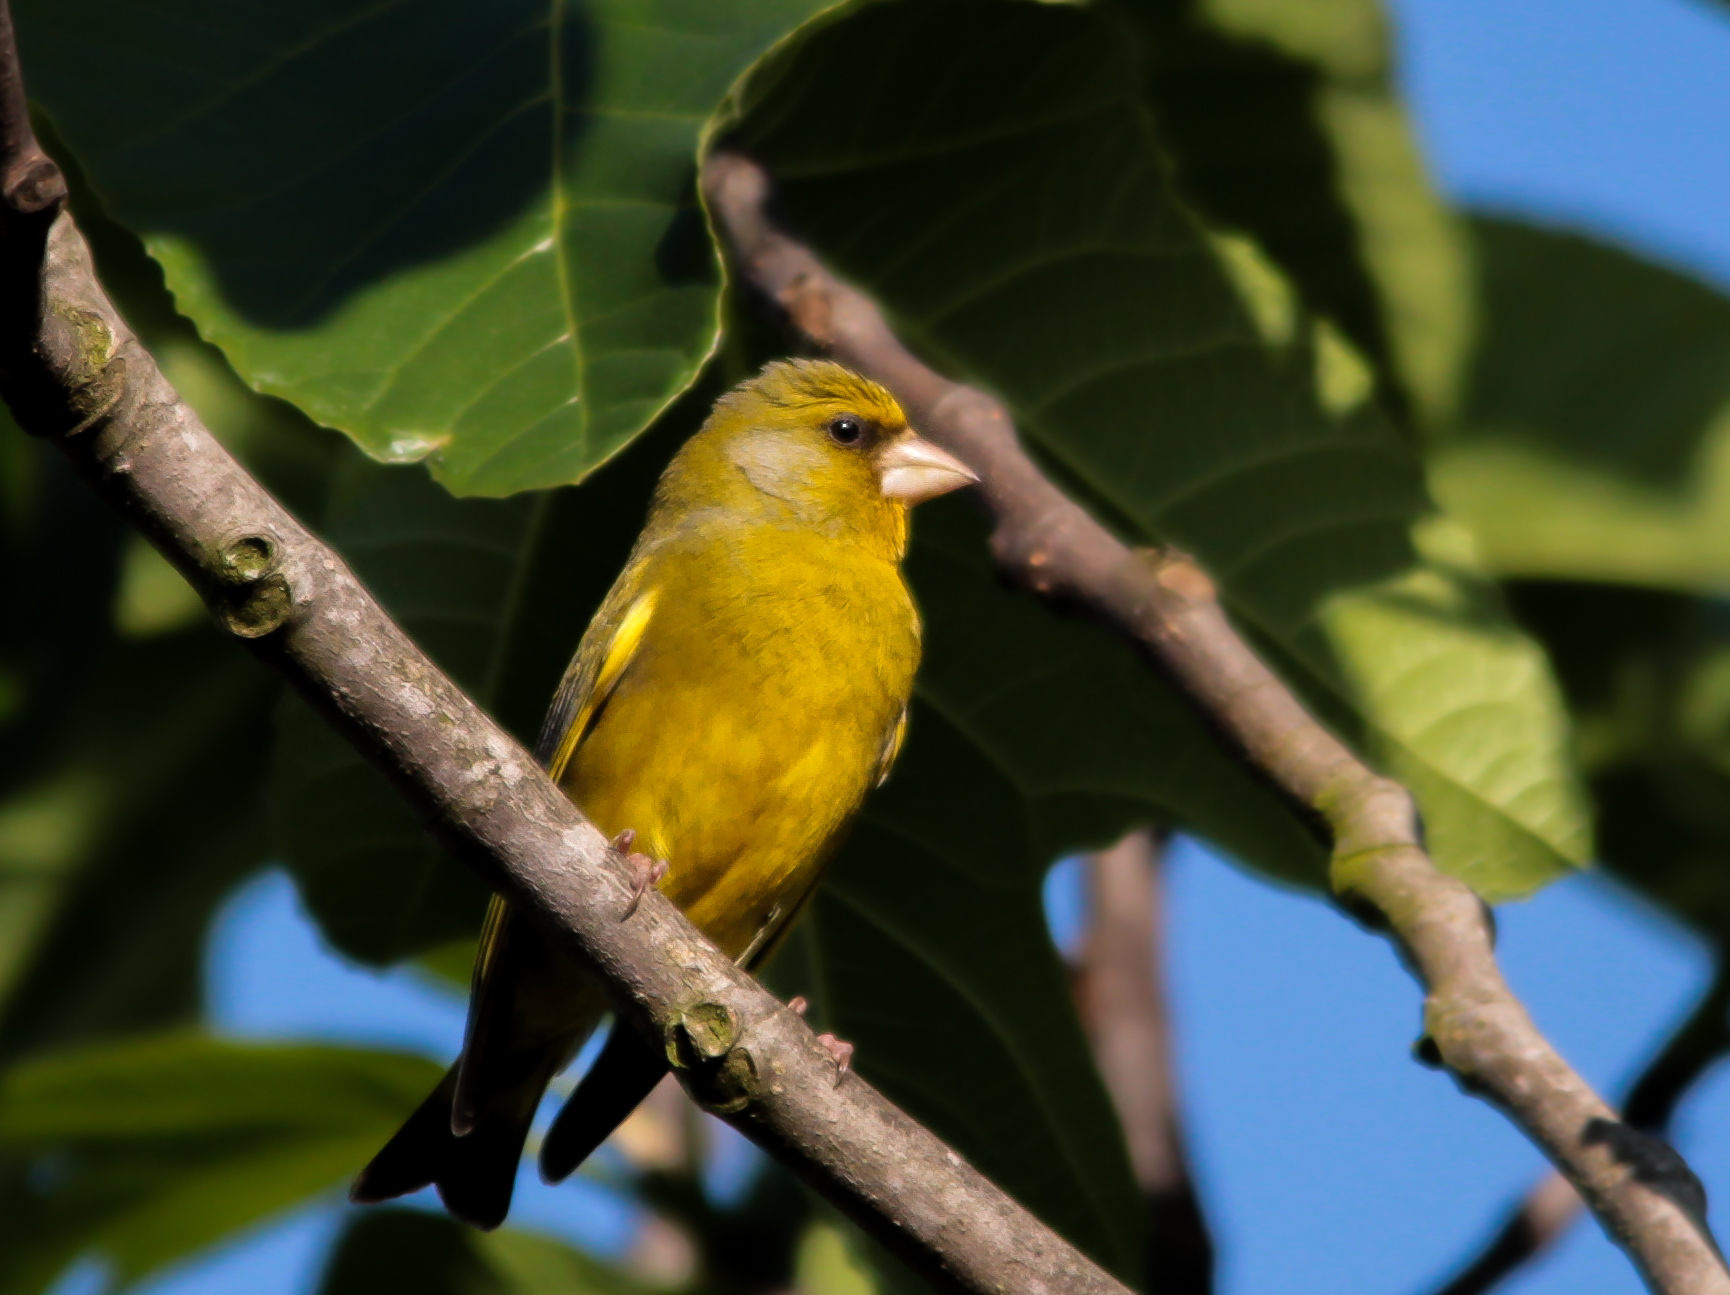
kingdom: Plantae
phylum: Tracheophyta
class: Liliopsida
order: Poales
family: Poaceae
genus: Chloris
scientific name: Chloris chloris
